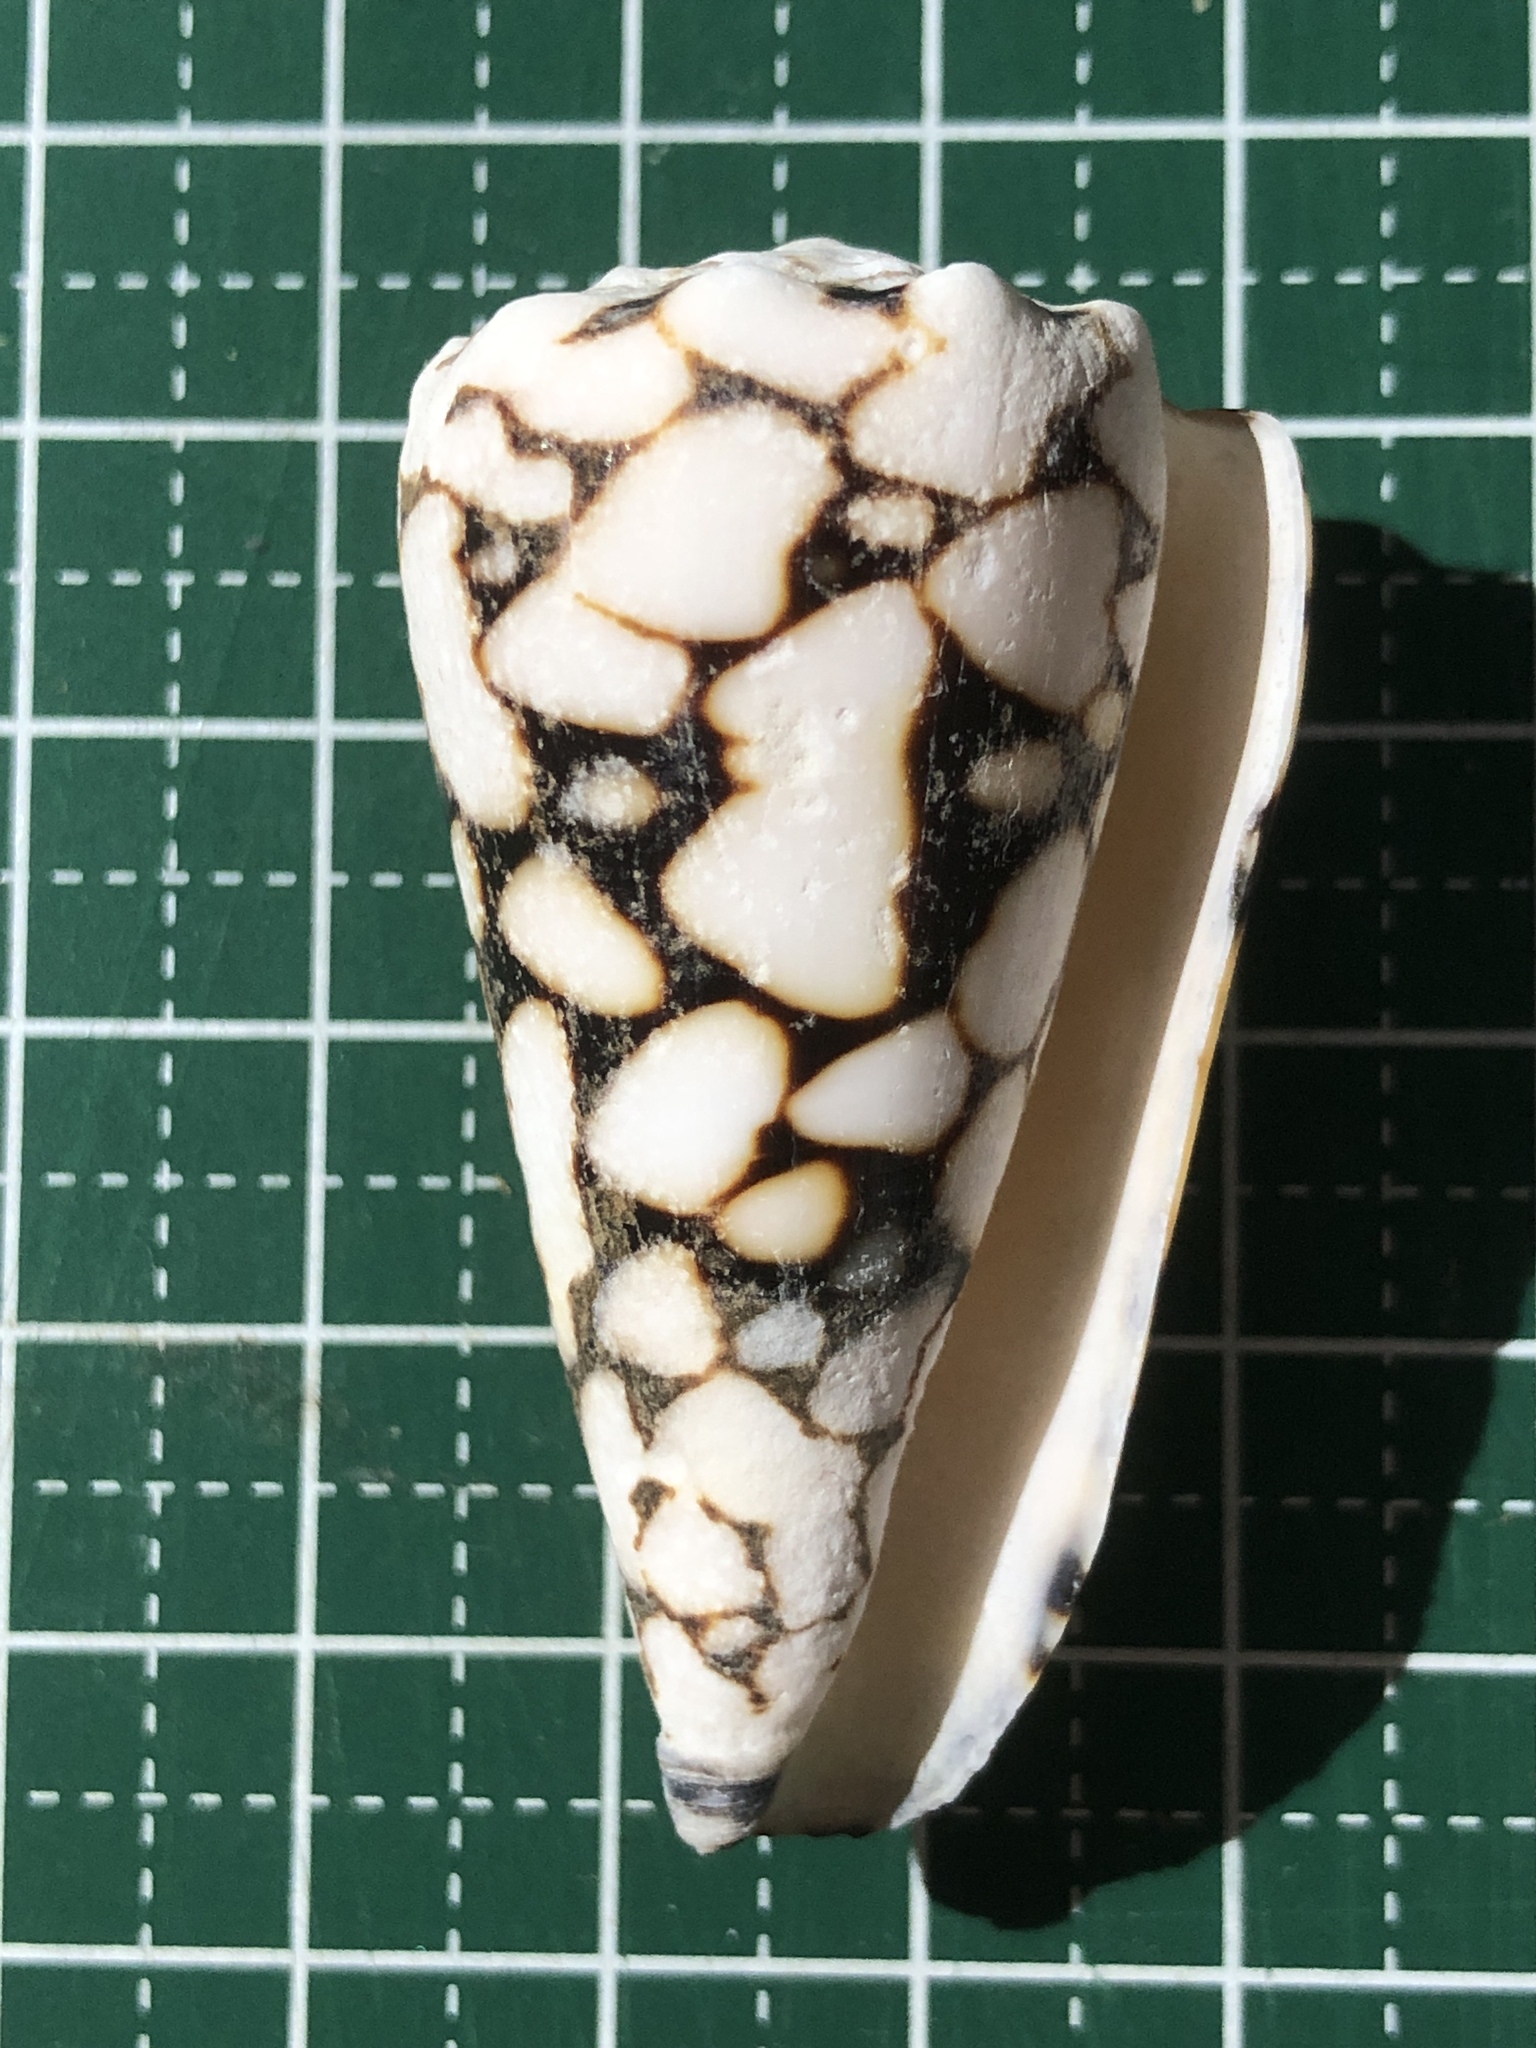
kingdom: Animalia
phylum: Mollusca
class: Gastropoda
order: Neogastropoda
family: Conidae
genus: Conus
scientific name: Conus bandanus
